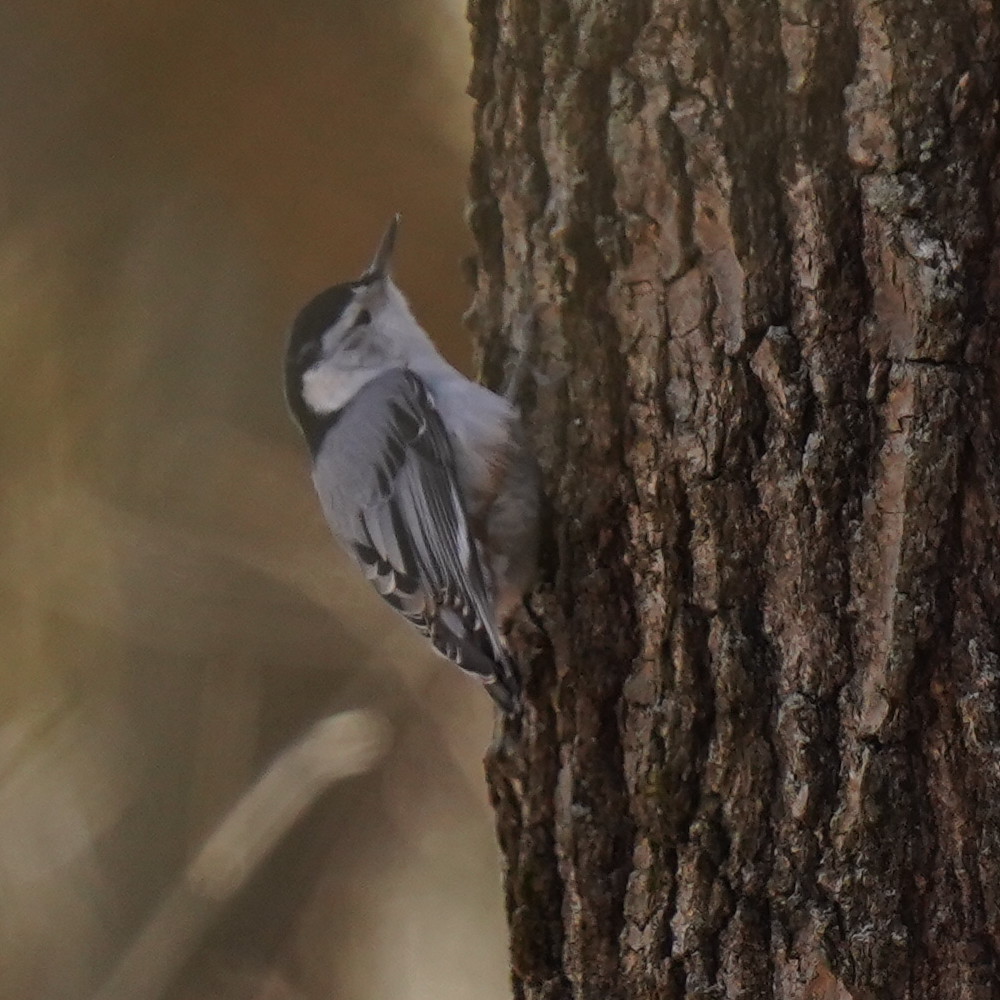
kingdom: Animalia
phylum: Chordata
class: Aves
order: Passeriformes
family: Sittidae
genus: Sitta
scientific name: Sitta carolinensis
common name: White-breasted nuthatch
